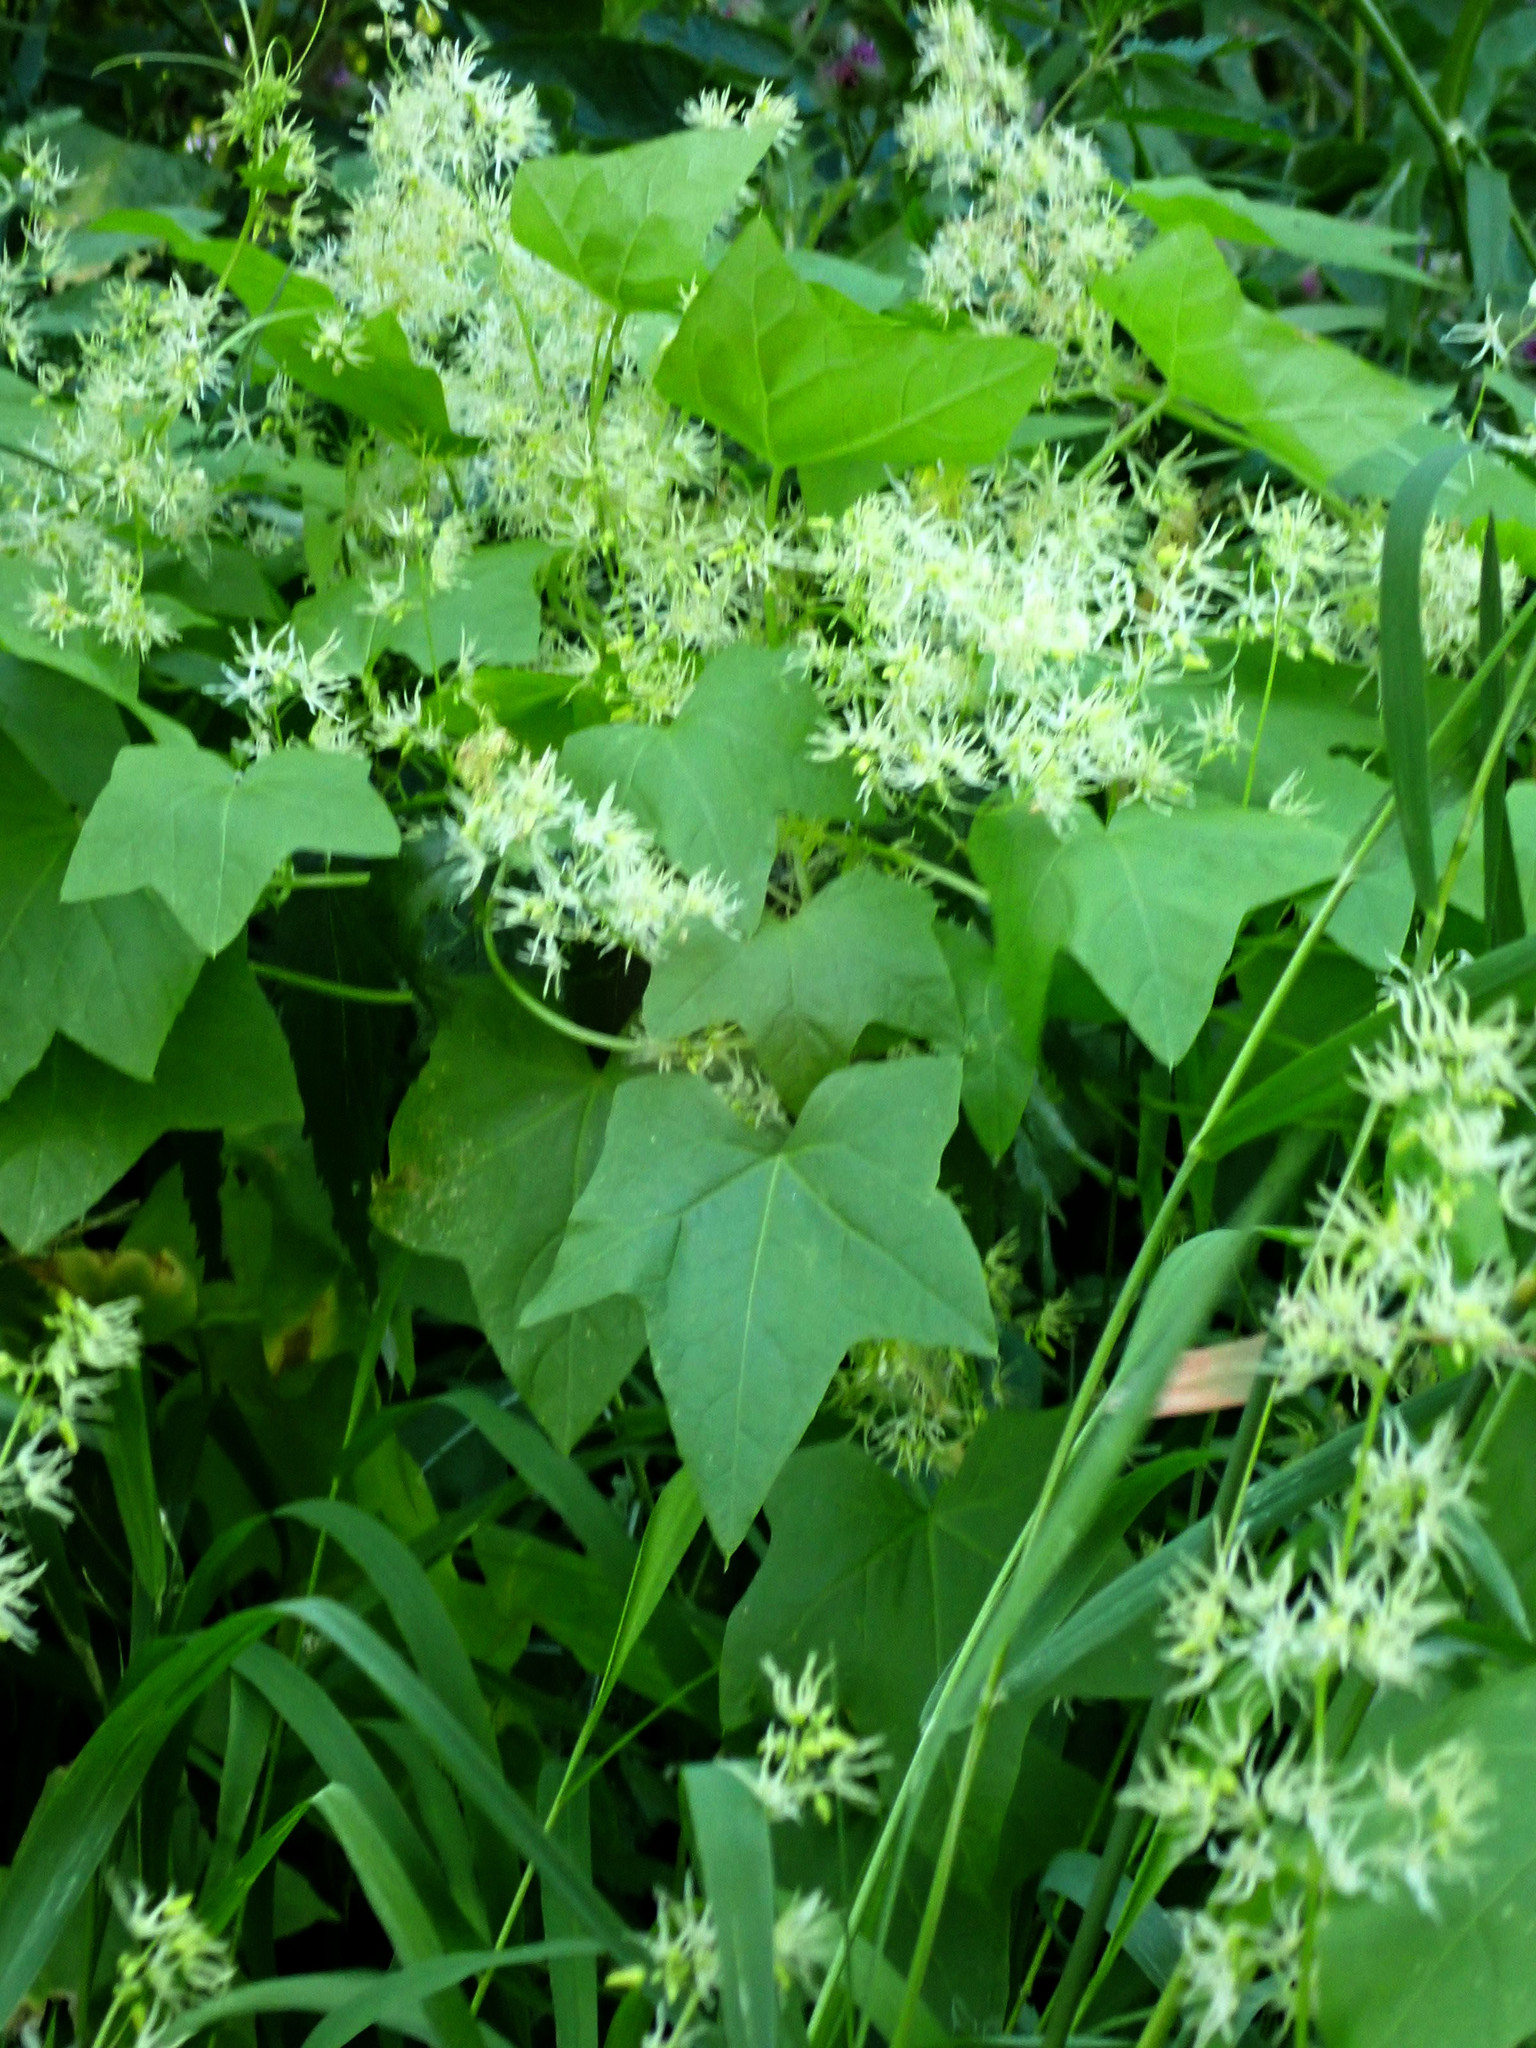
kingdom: Plantae
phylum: Tracheophyta
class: Magnoliopsida
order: Cucurbitales
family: Cucurbitaceae
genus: Echinocystis
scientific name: Echinocystis lobata
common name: Wild cucumber
